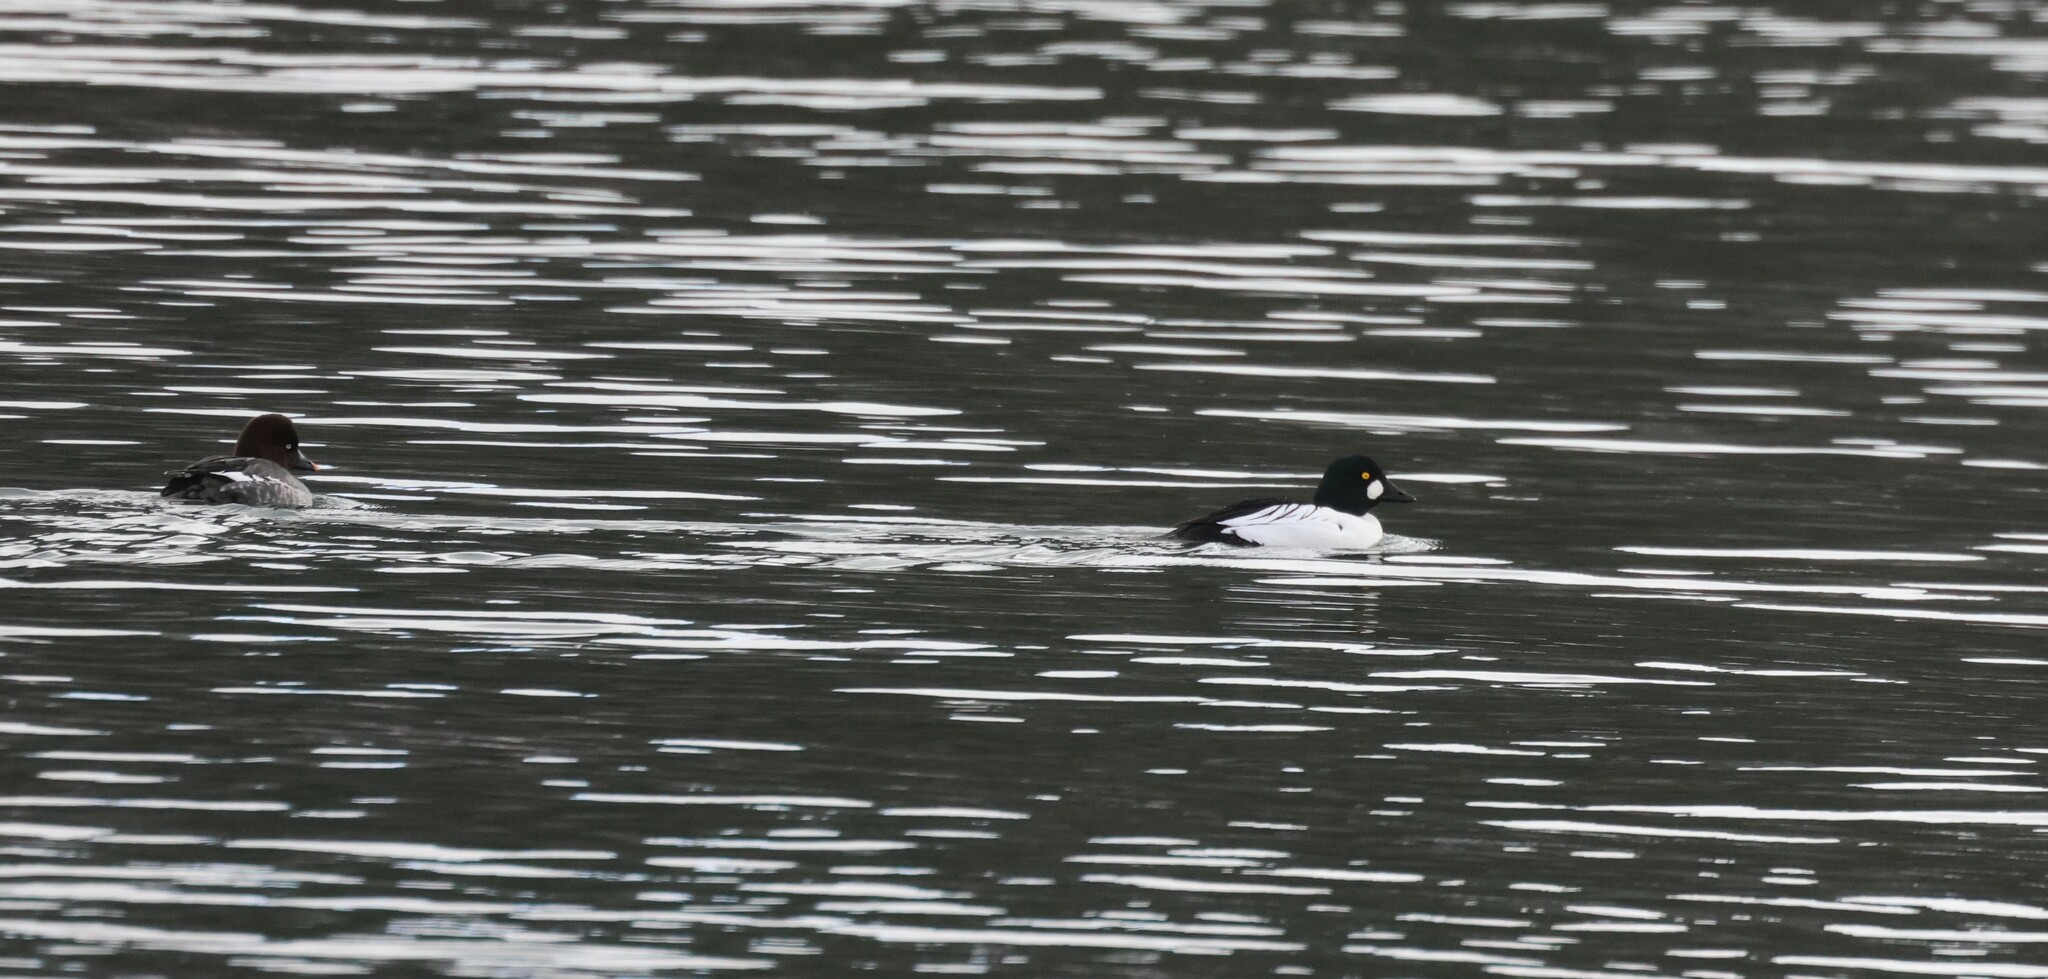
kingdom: Animalia
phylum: Chordata
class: Aves
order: Anseriformes
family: Anatidae
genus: Bucephala
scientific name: Bucephala clangula
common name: Common goldeneye
